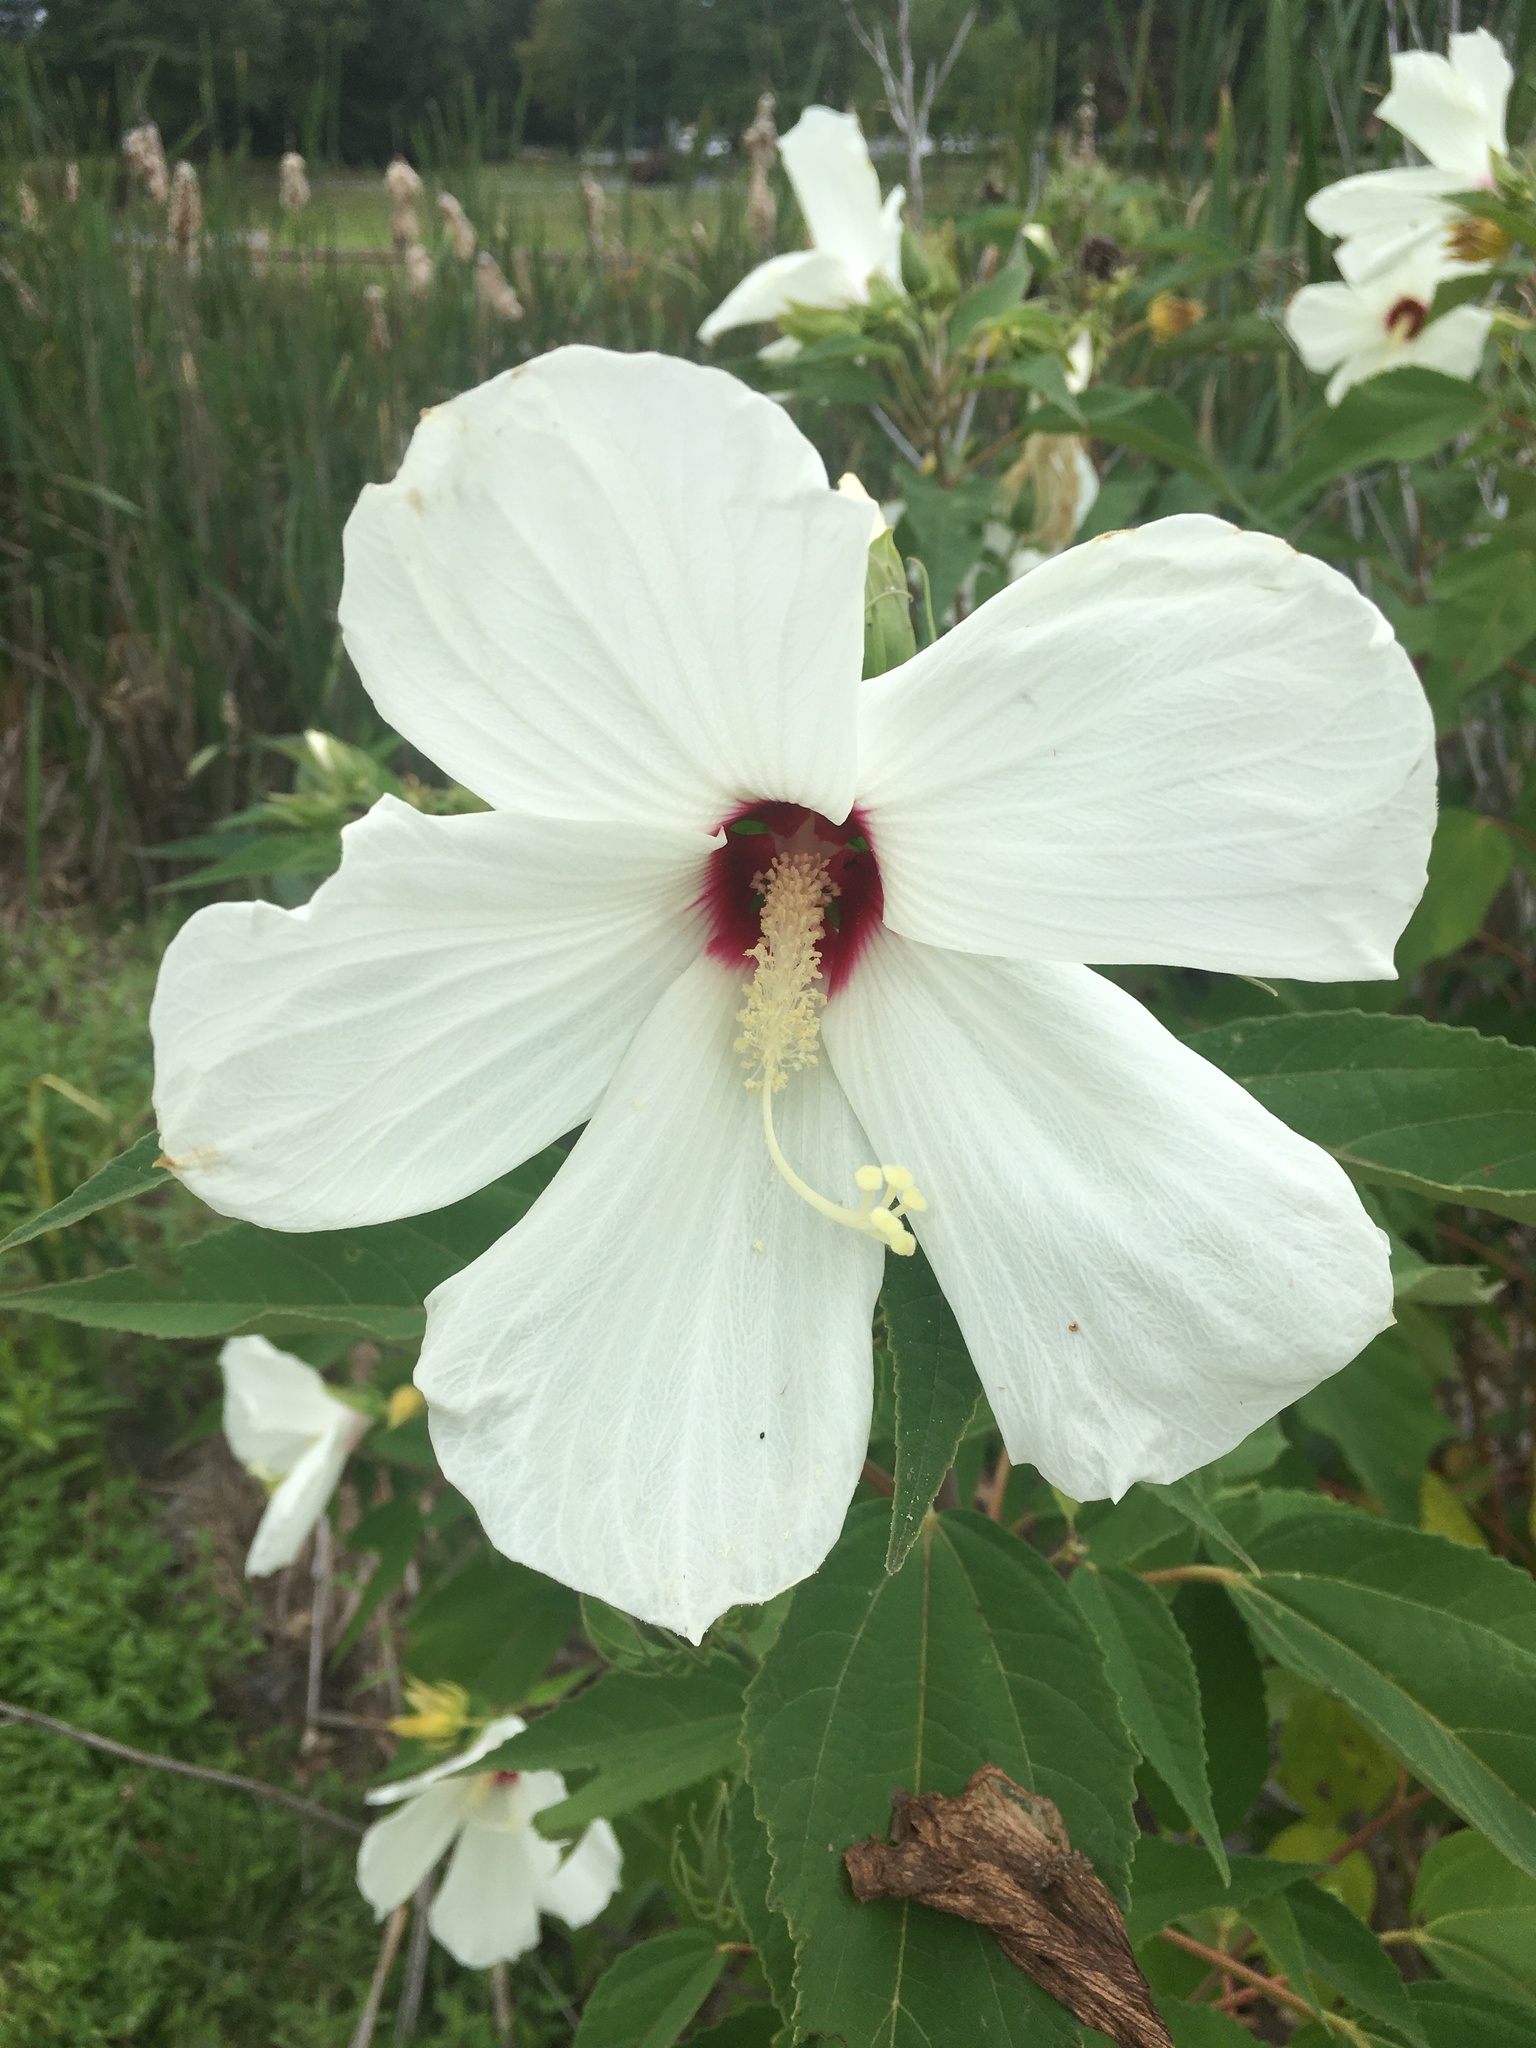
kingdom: Plantae
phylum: Tracheophyta
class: Magnoliopsida
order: Malvales
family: Malvaceae
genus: Hibiscus
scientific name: Hibiscus moscheutos
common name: Common rose-mallow
